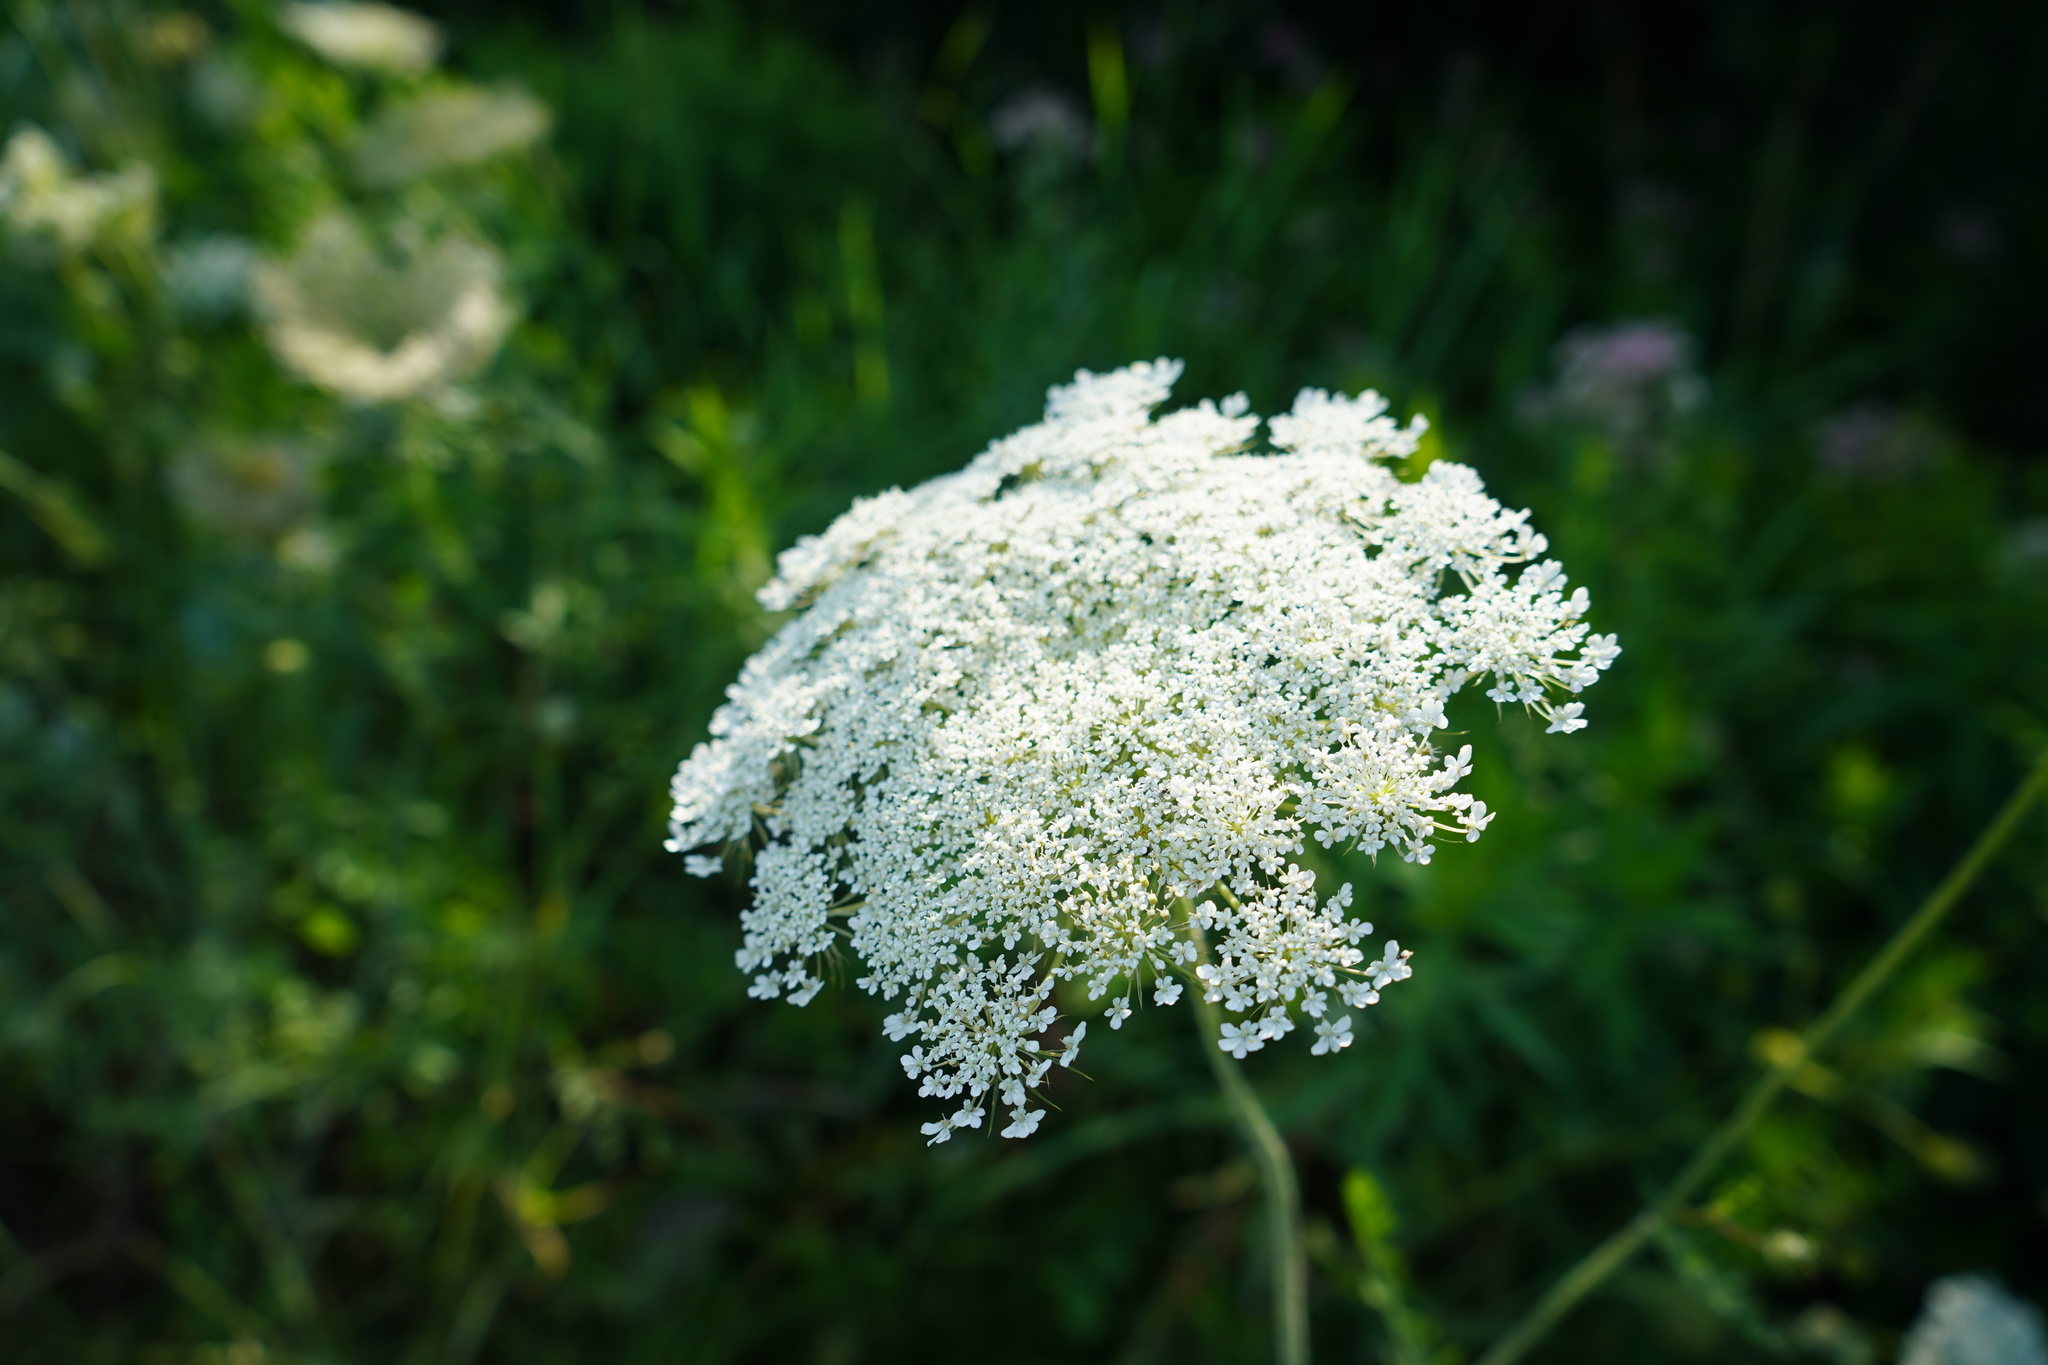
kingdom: Plantae
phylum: Tracheophyta
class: Magnoliopsida
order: Apiales
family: Apiaceae
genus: Daucus
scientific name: Daucus carota
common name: Wild carrot
